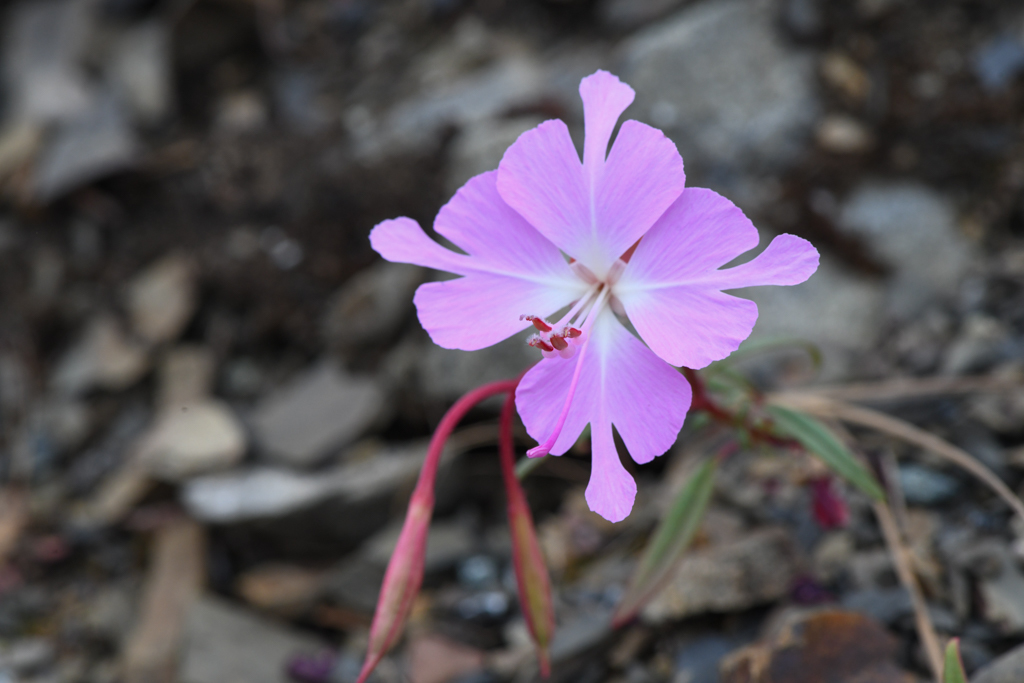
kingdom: Plantae
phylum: Tracheophyta
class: Magnoliopsida
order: Myrtales
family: Onagraceae
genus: Clarkia
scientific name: Clarkia breweri
